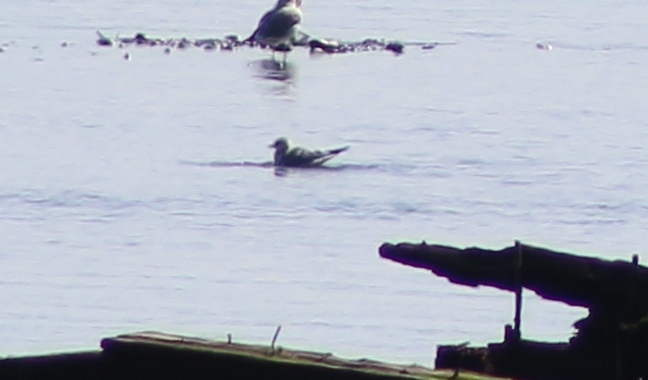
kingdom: Animalia
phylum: Chordata
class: Aves
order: Charadriiformes
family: Laridae
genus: Larus
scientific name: Larus brachyrhynchus
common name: Short-billed gull
